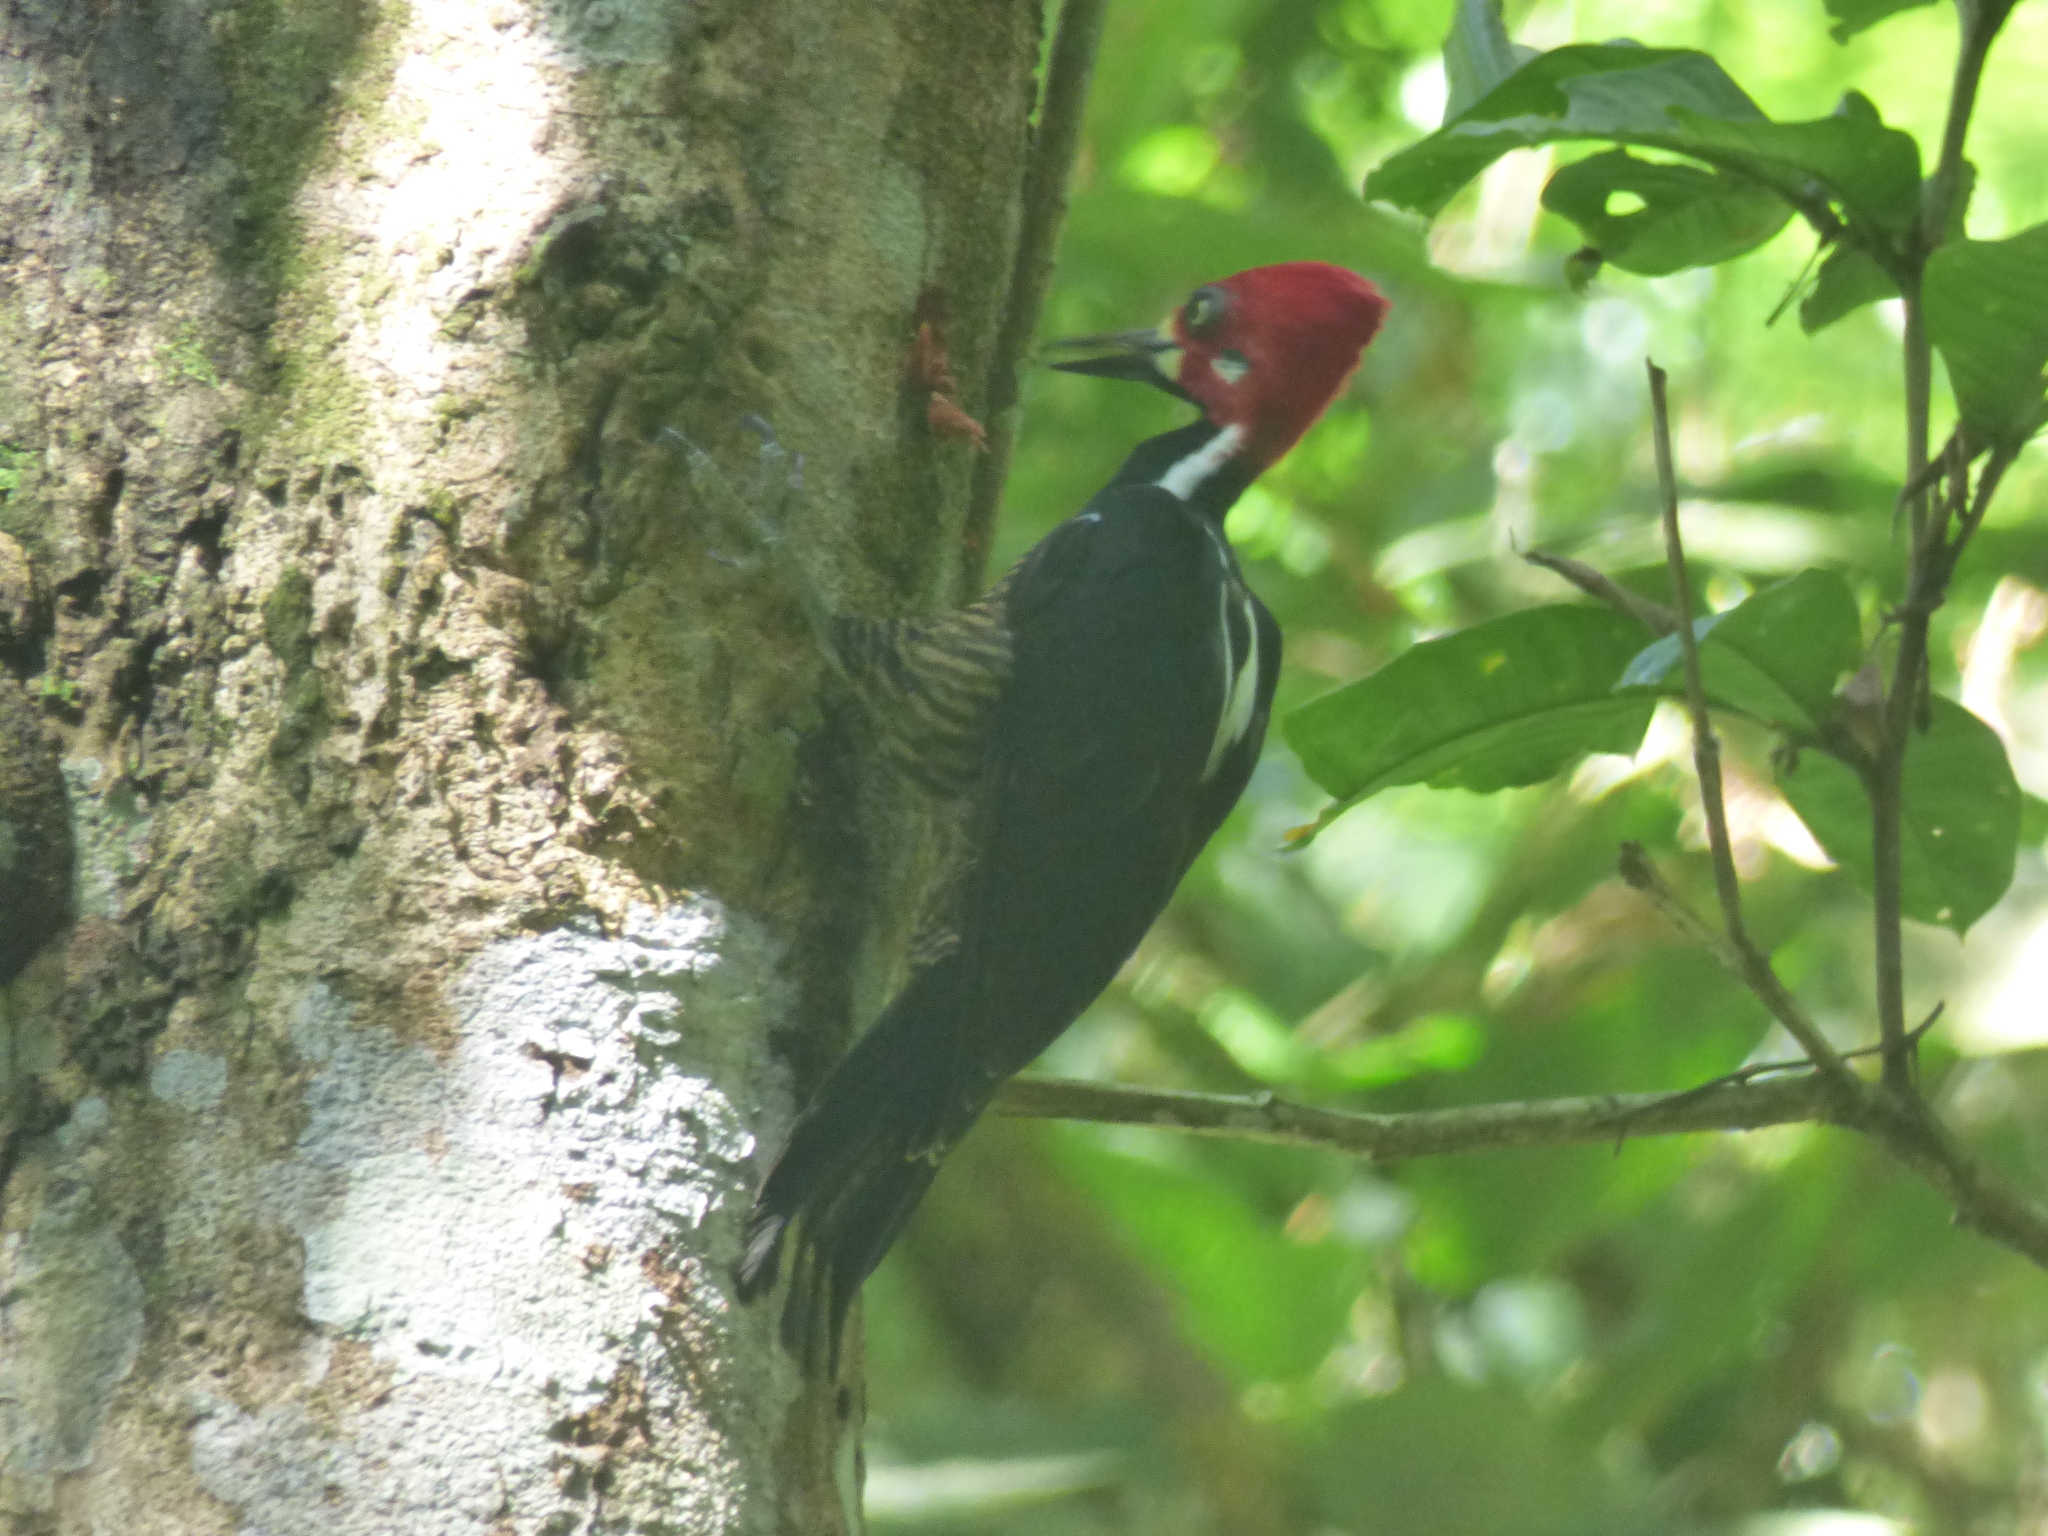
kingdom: Animalia
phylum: Chordata
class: Aves
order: Piciformes
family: Picidae
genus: Campephilus
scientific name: Campephilus melanoleucos
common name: Crimson-crested woodpecker
